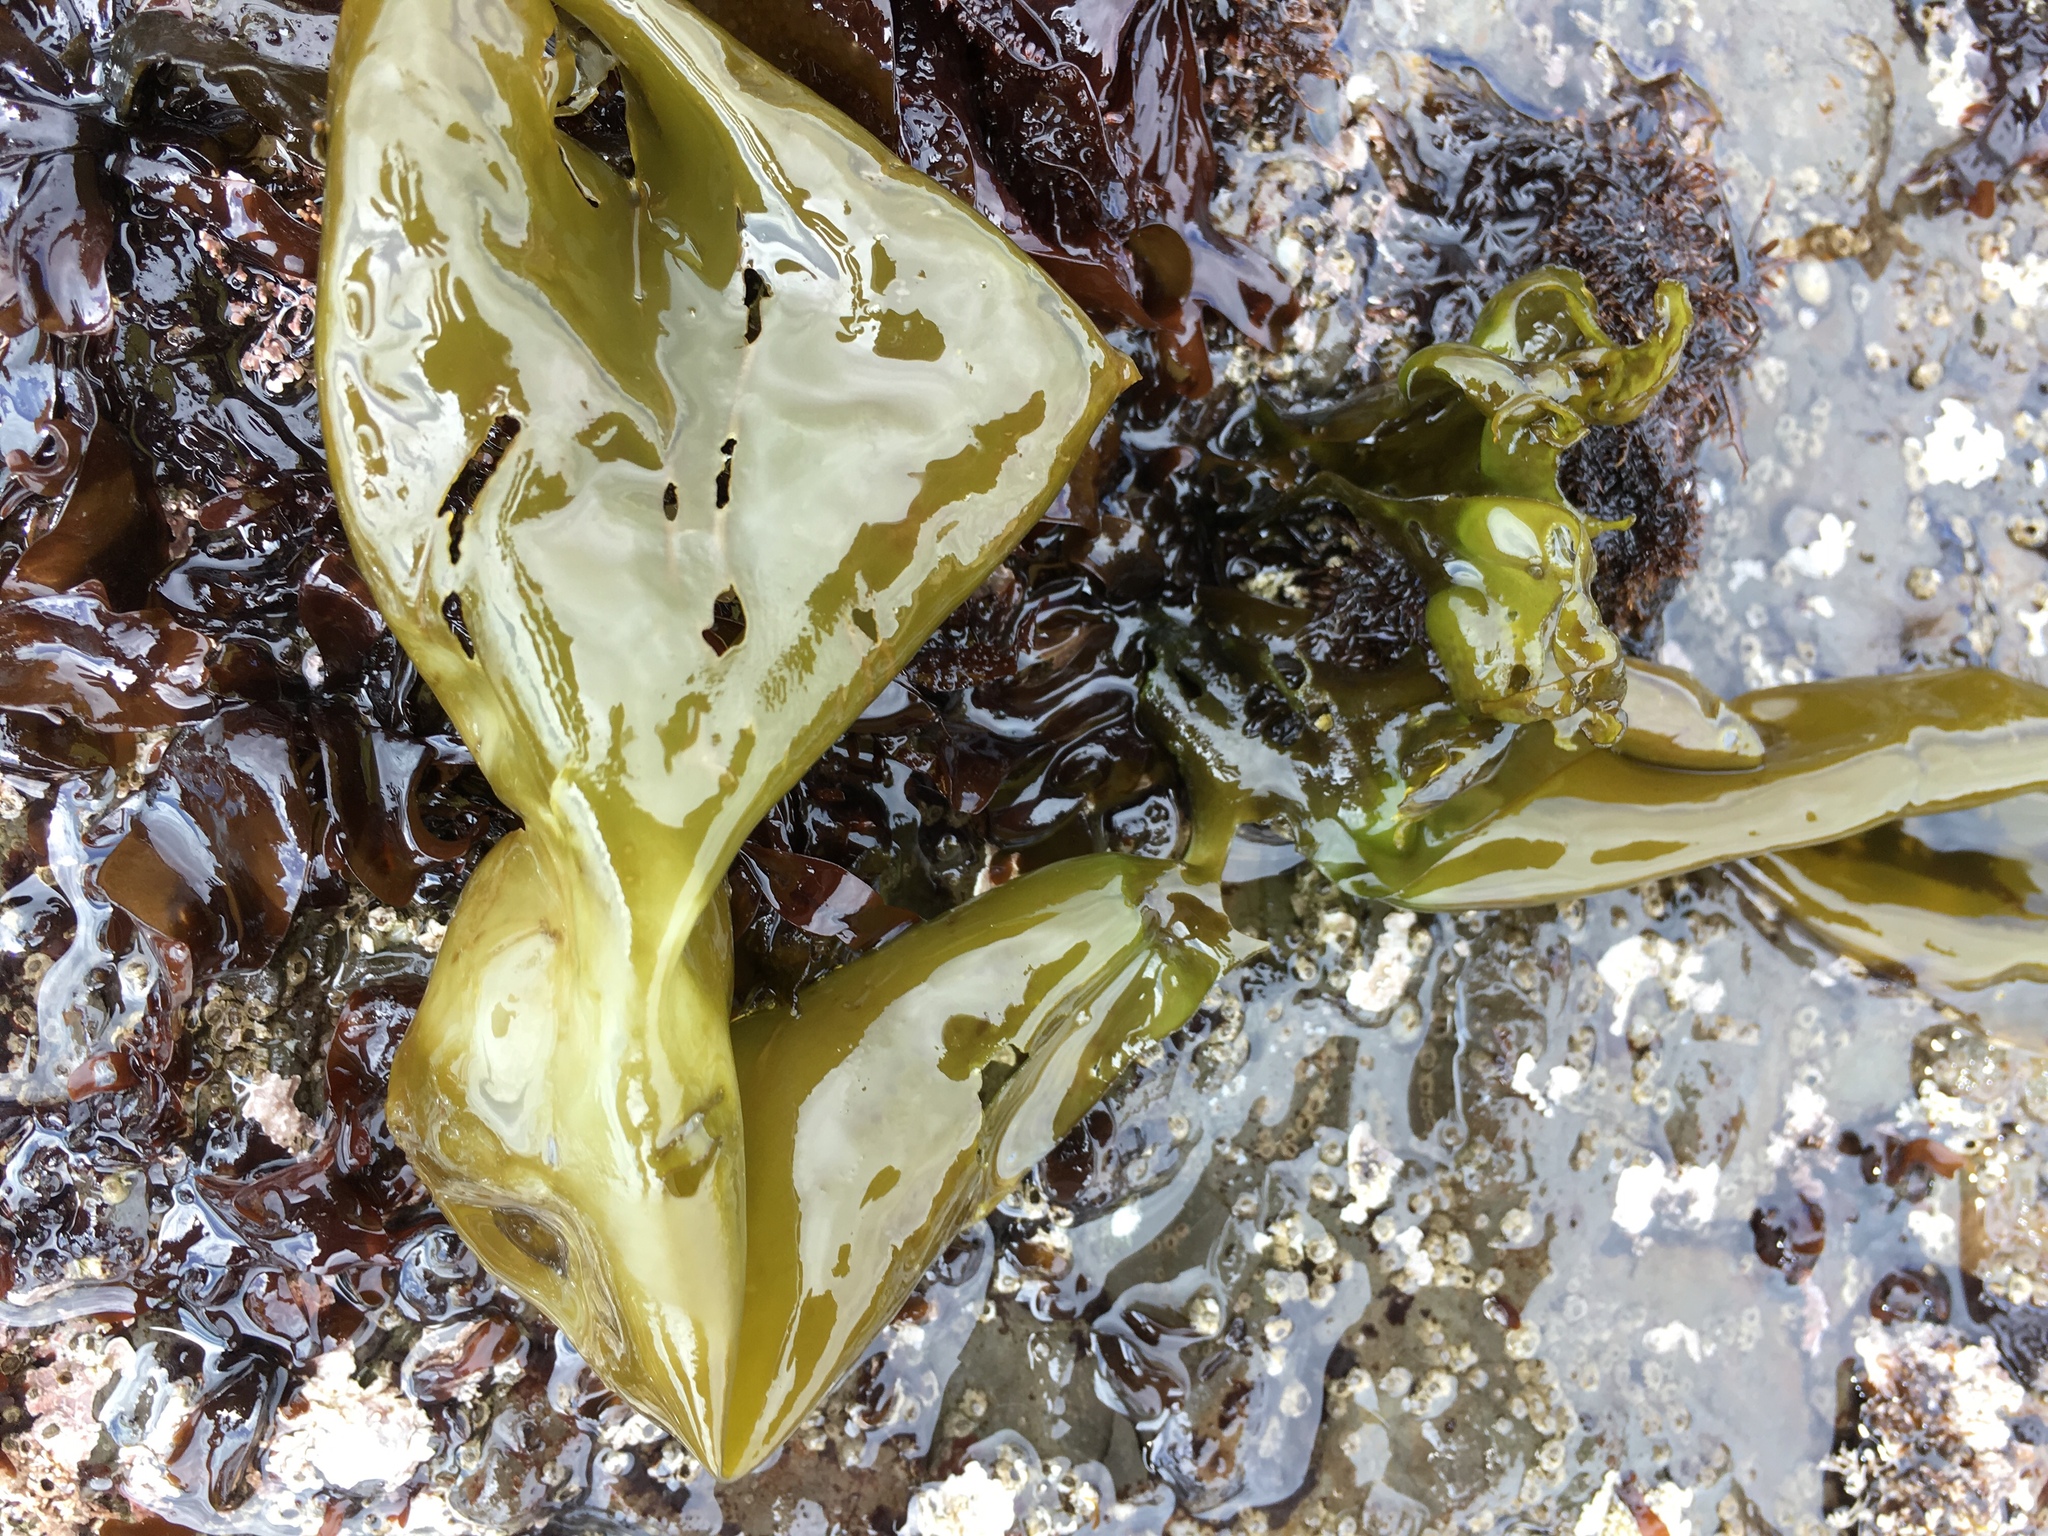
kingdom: Plantae
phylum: Rhodophyta
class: Florideophyceae
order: Gigartinales
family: Gigartinaceae
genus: Mazzaella
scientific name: Mazzaella flaccida
